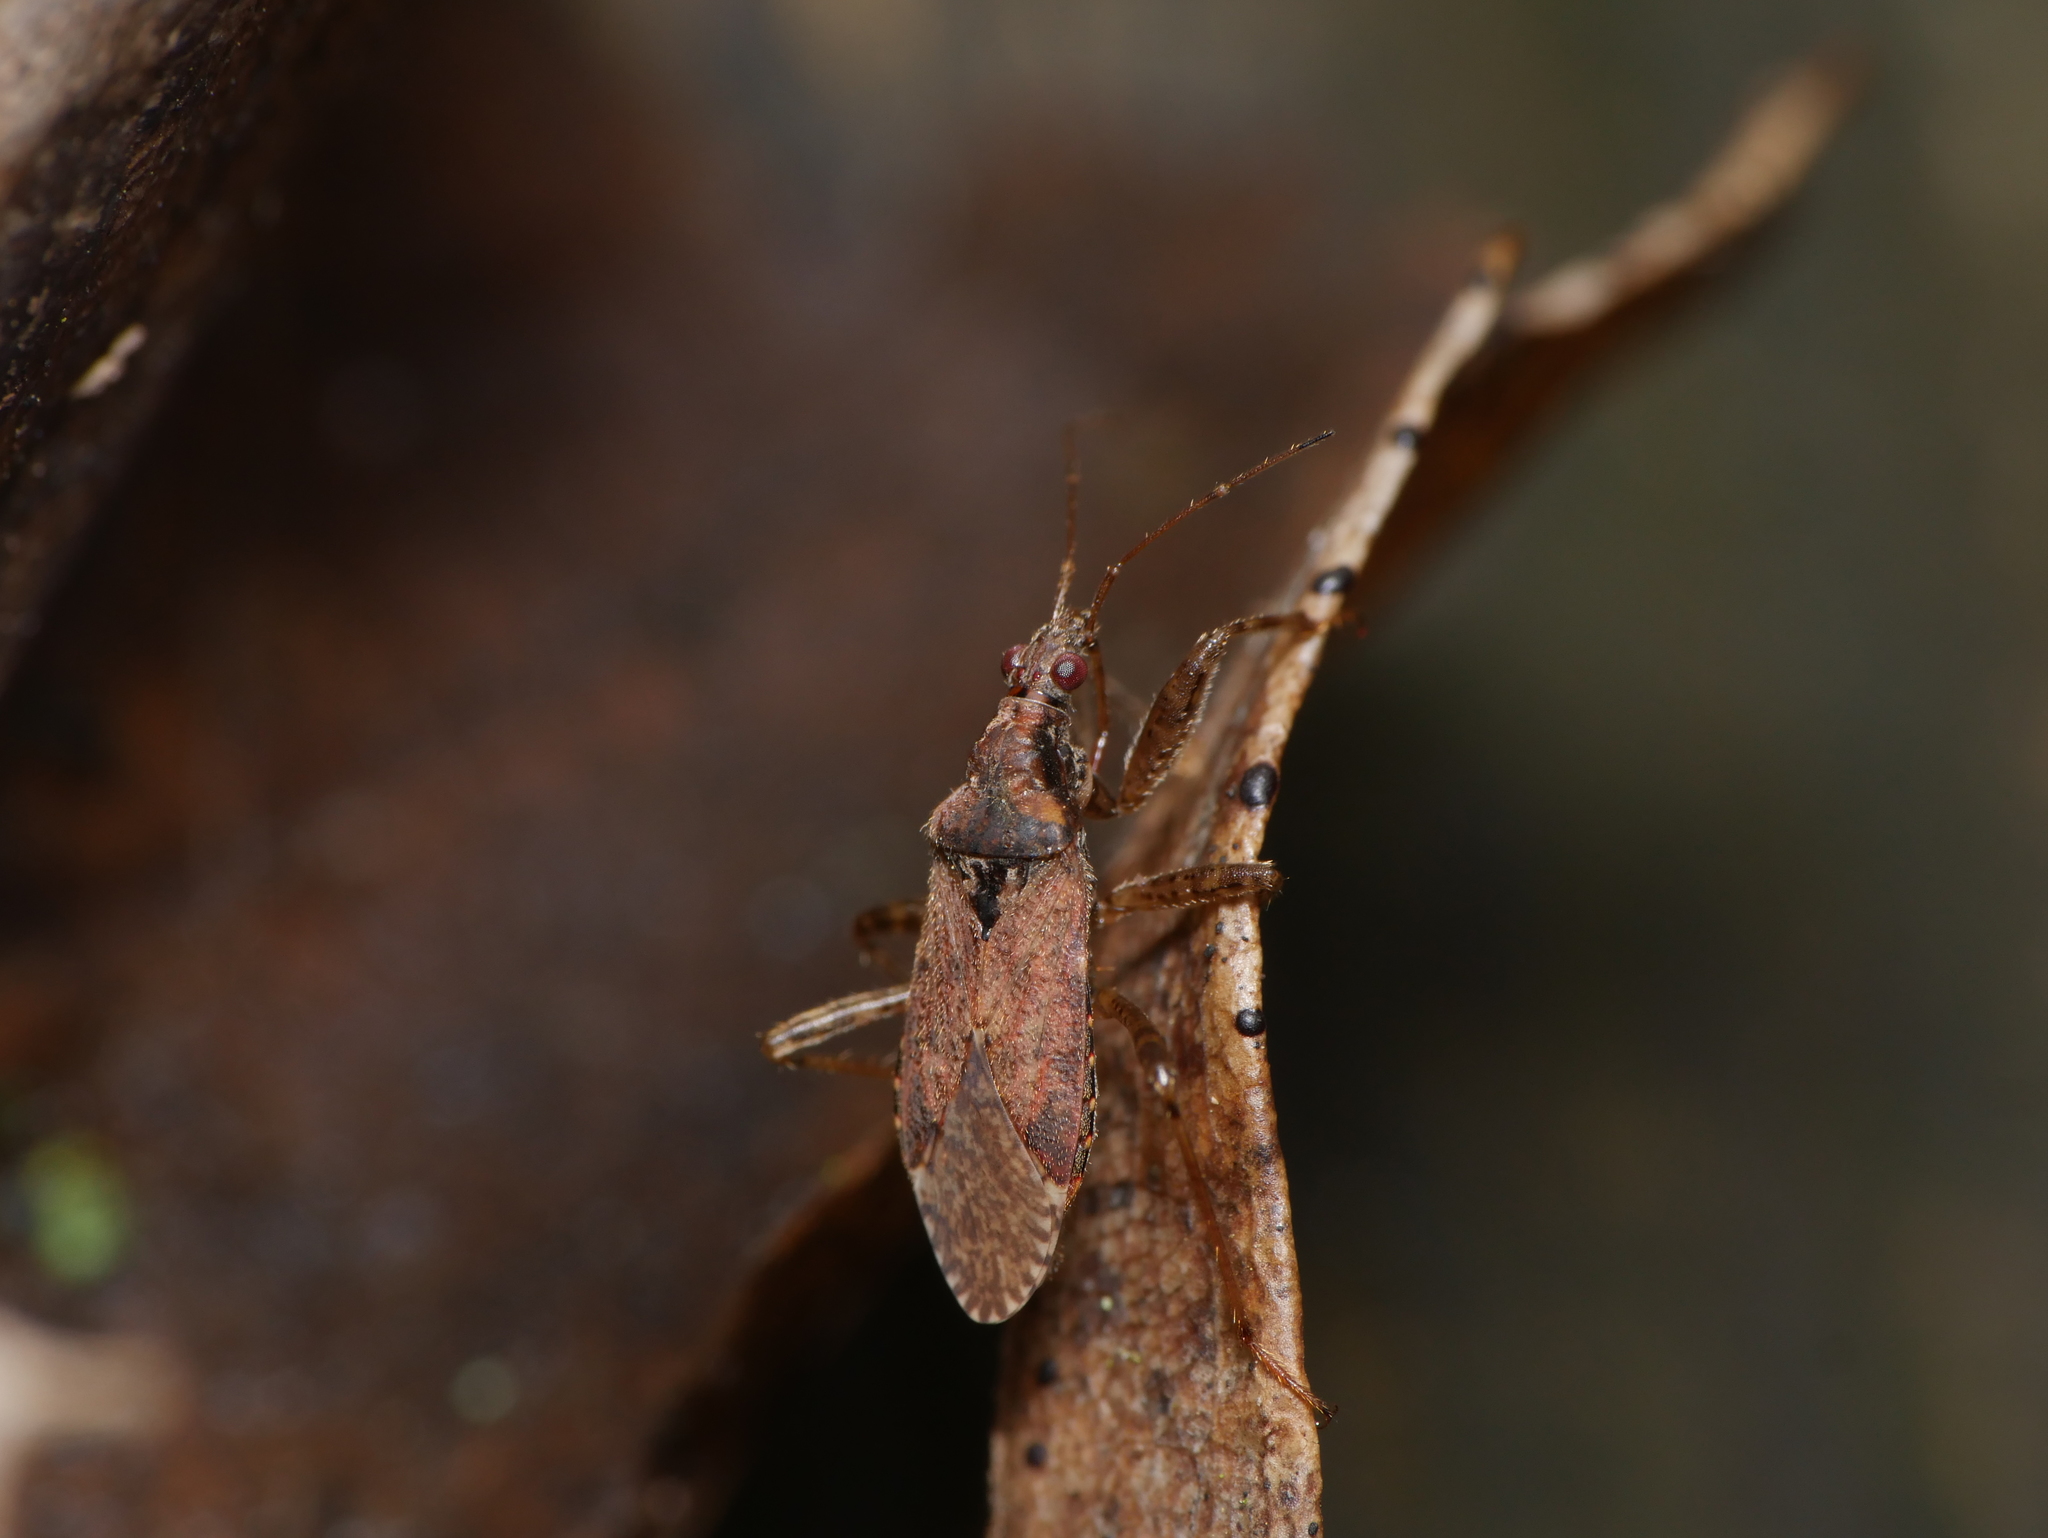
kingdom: Animalia
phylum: Arthropoda
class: Insecta
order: Hemiptera
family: Nabidae
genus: Himacerus
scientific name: Himacerus mirmicoides
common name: Ant damsel bug
